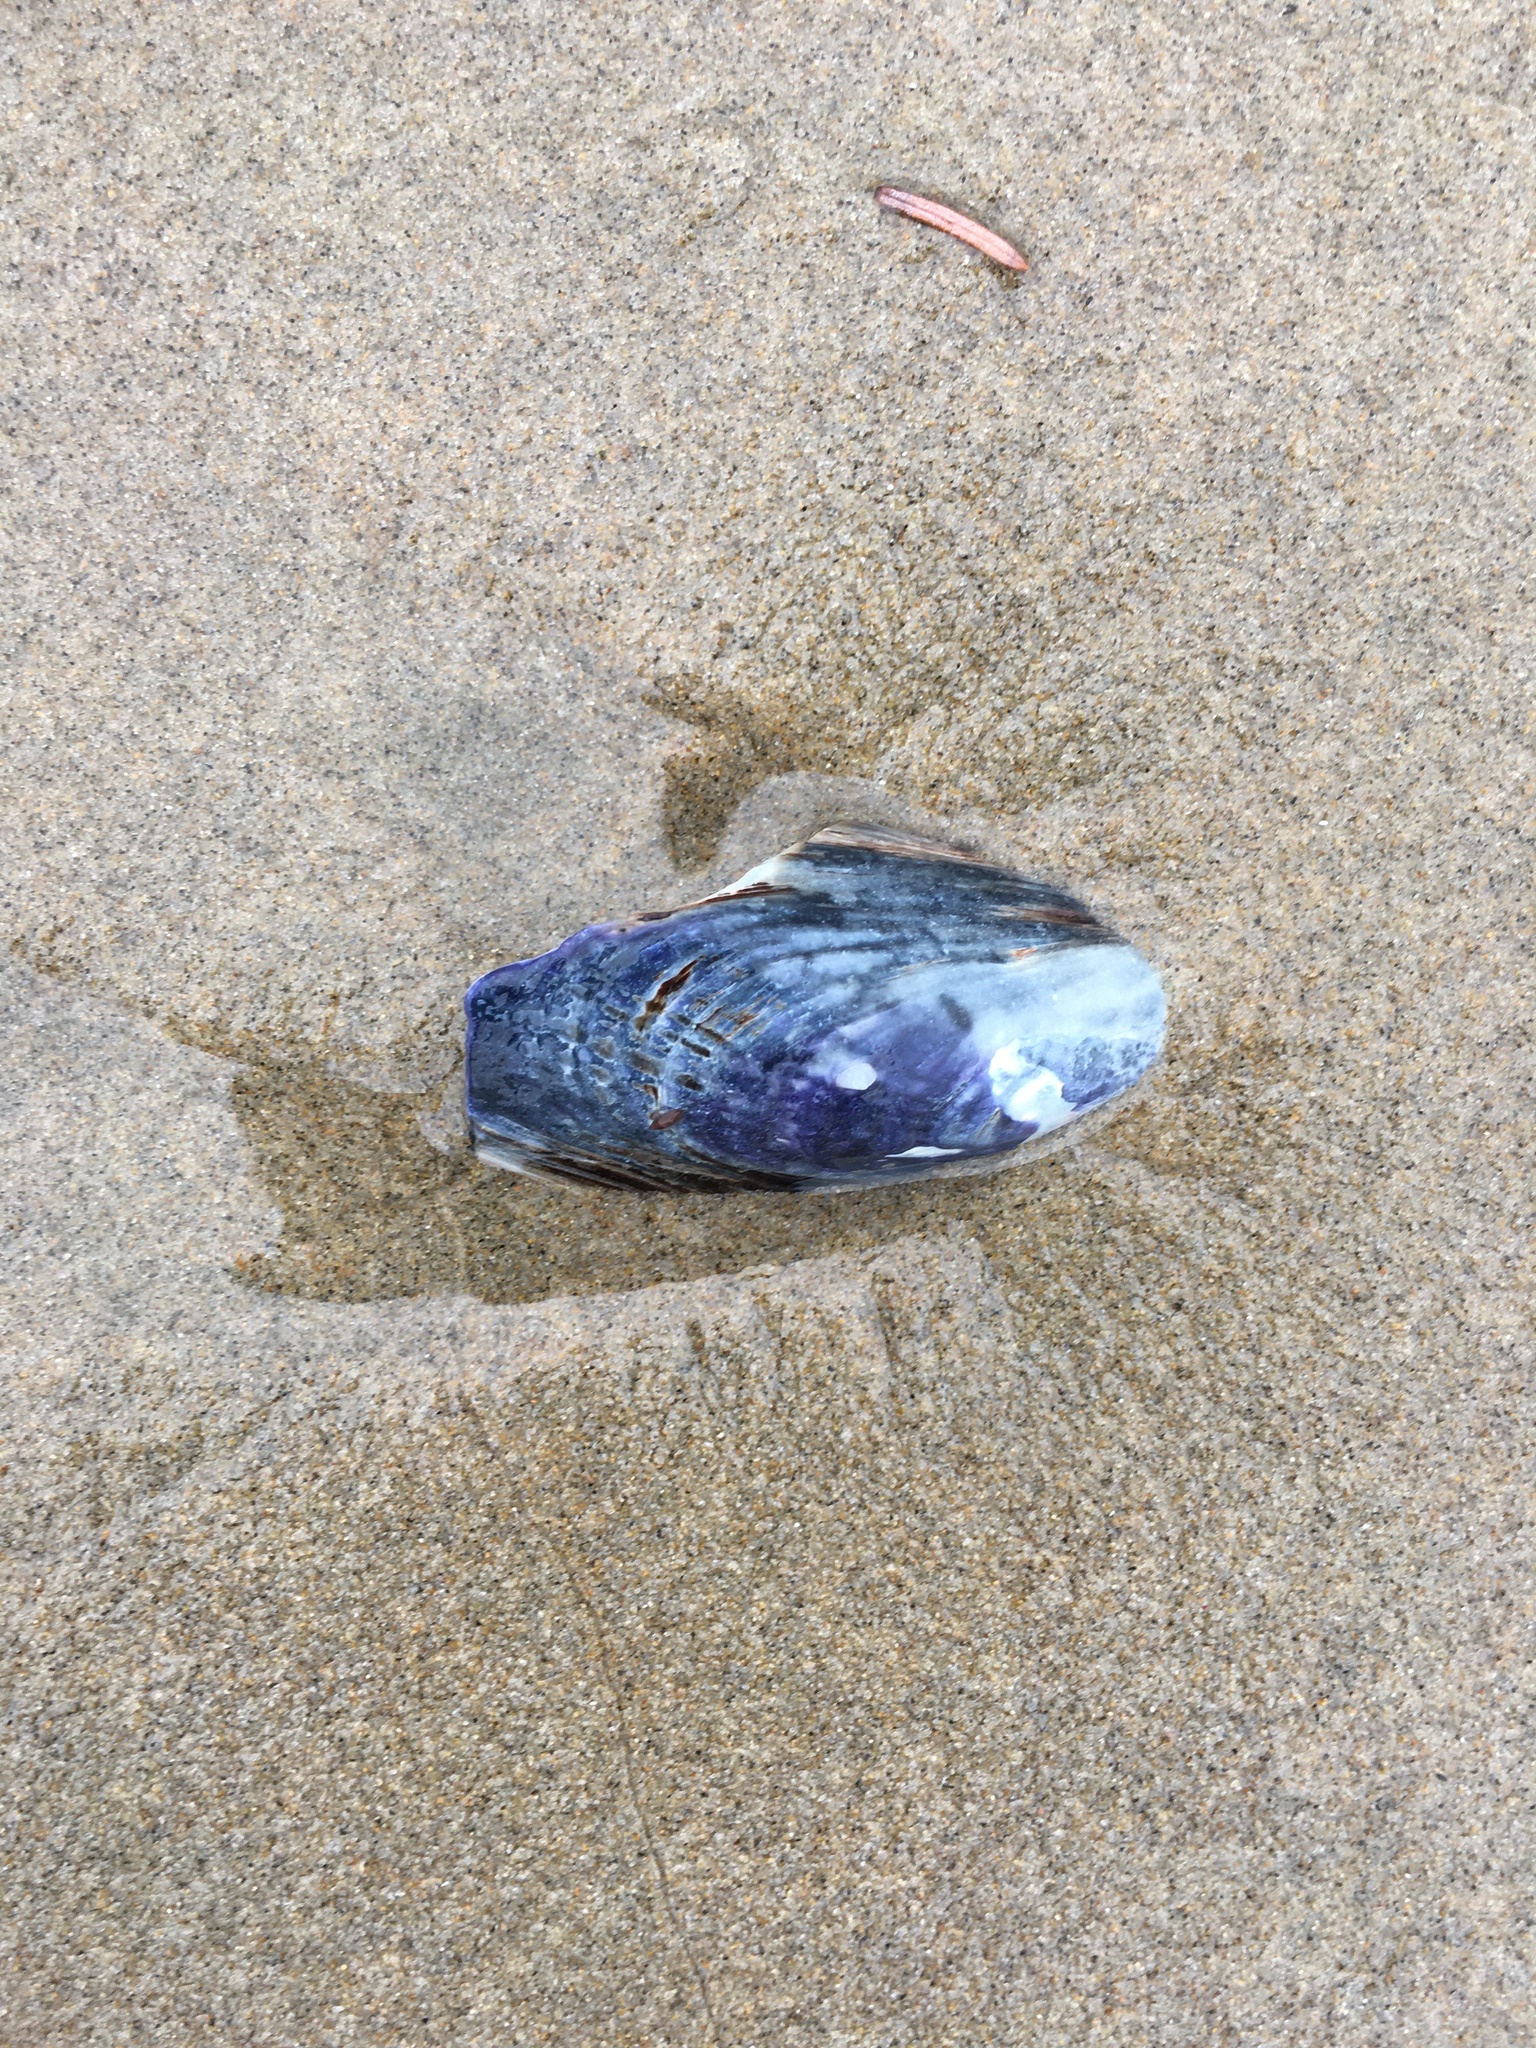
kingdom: Animalia
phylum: Mollusca
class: Bivalvia
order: Mytilida
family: Mytilidae
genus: Mytilus
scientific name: Mytilus californianus
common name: California mussel
